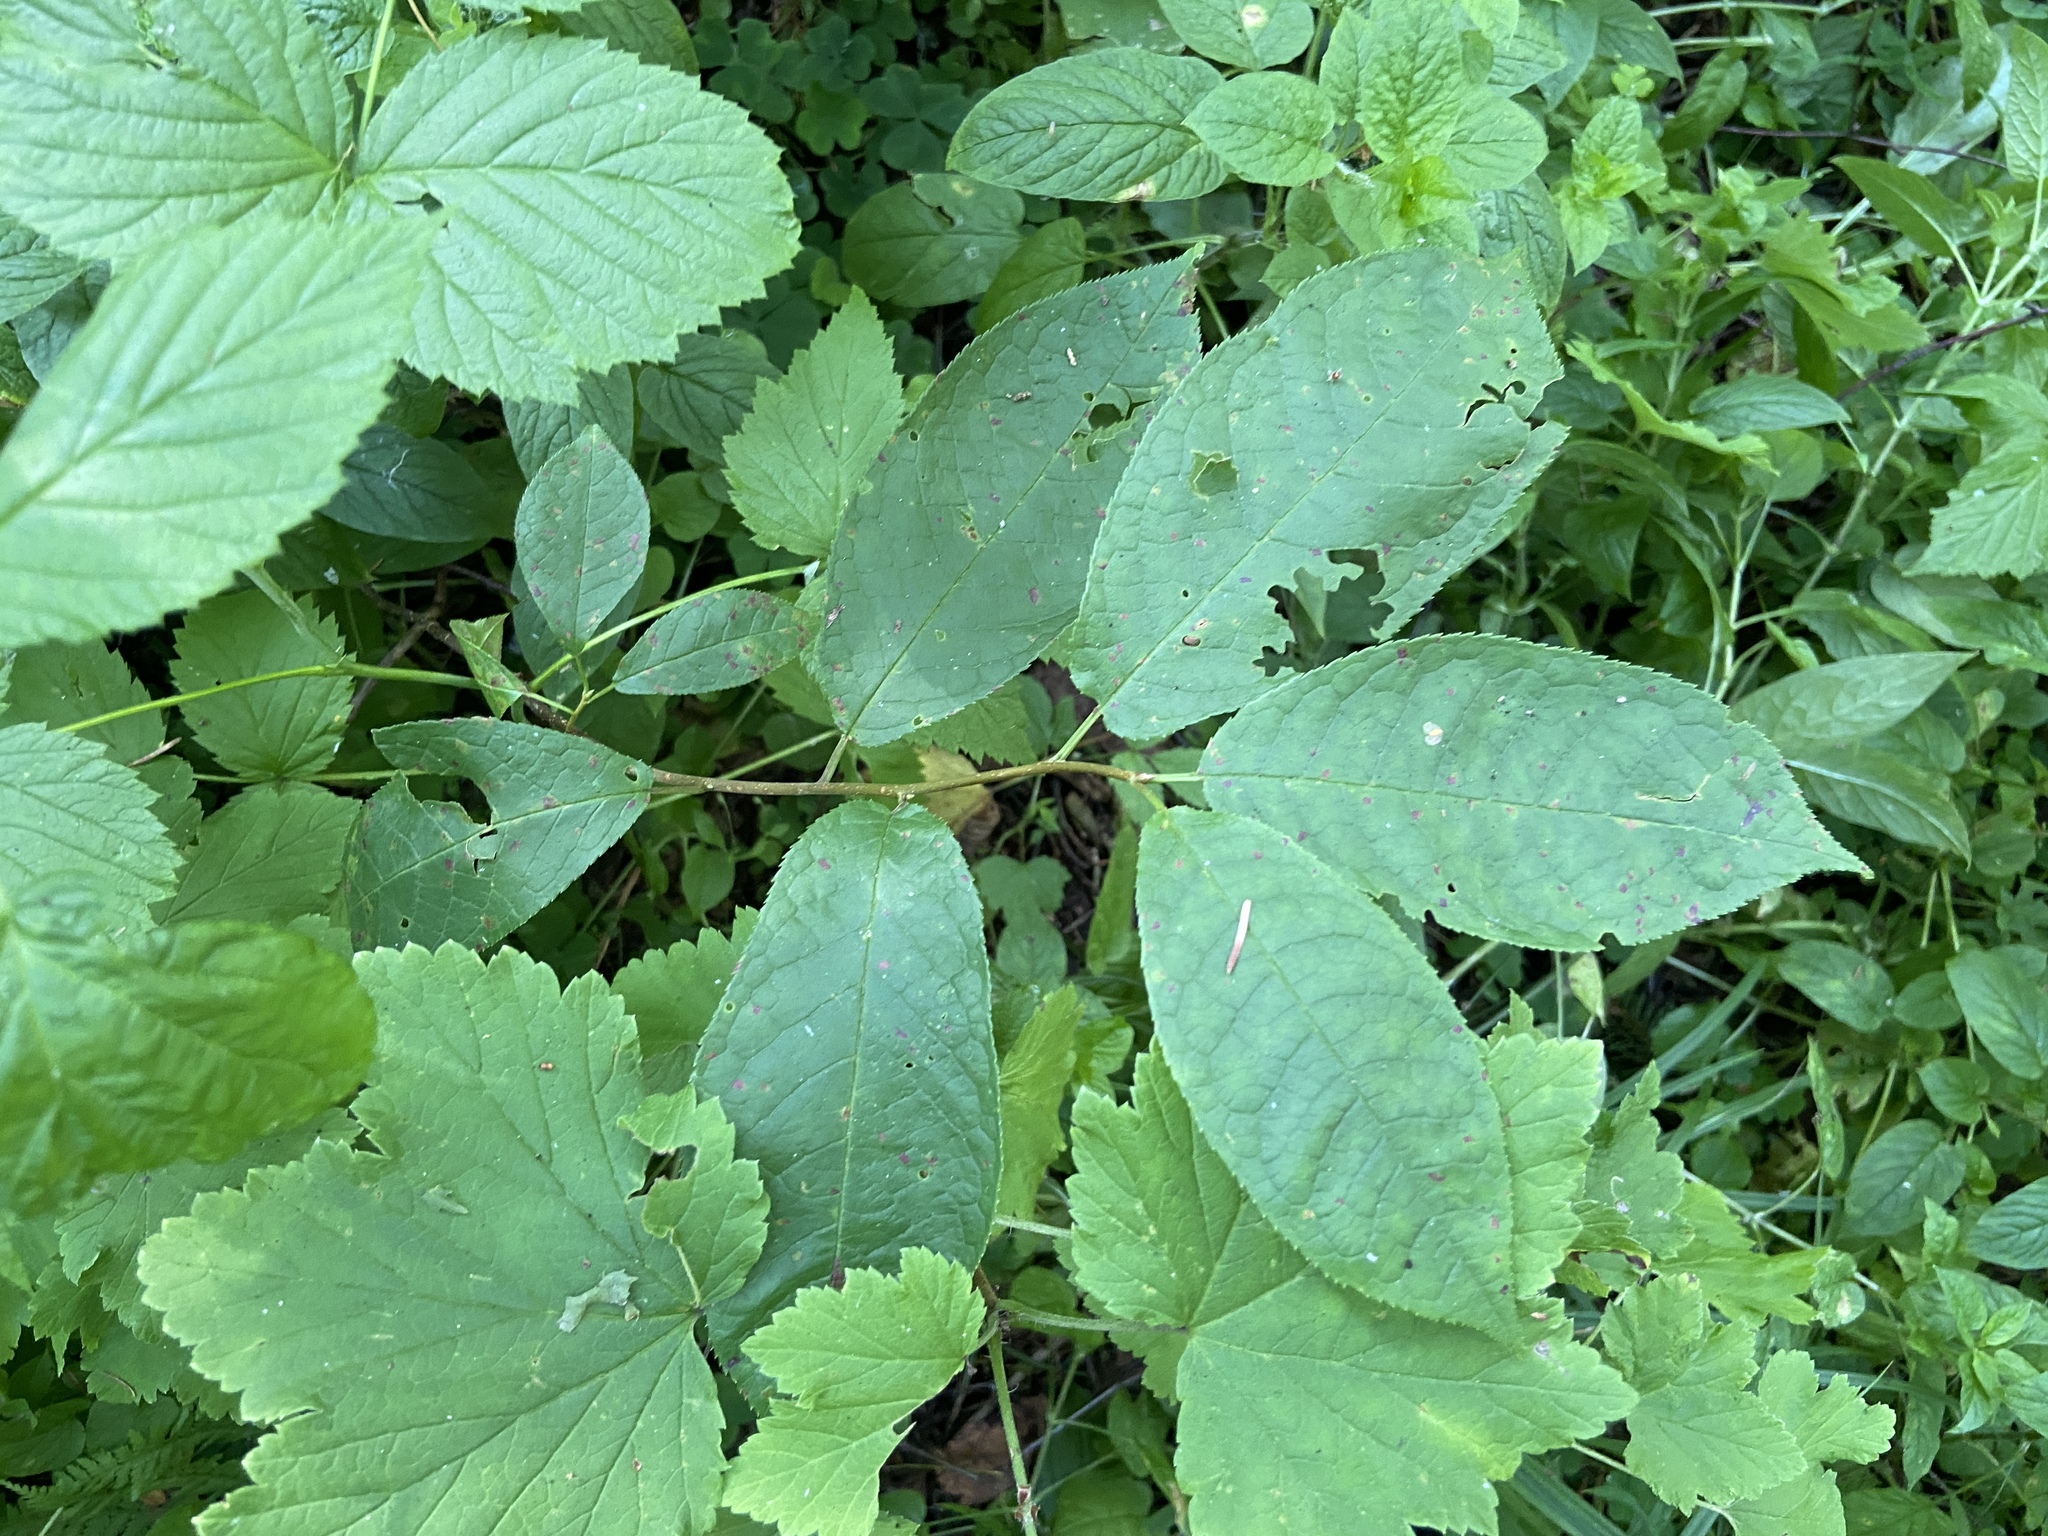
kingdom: Plantae
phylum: Tracheophyta
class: Magnoliopsida
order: Rosales
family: Rosaceae
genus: Prunus
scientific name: Prunus padus
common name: Bird cherry
